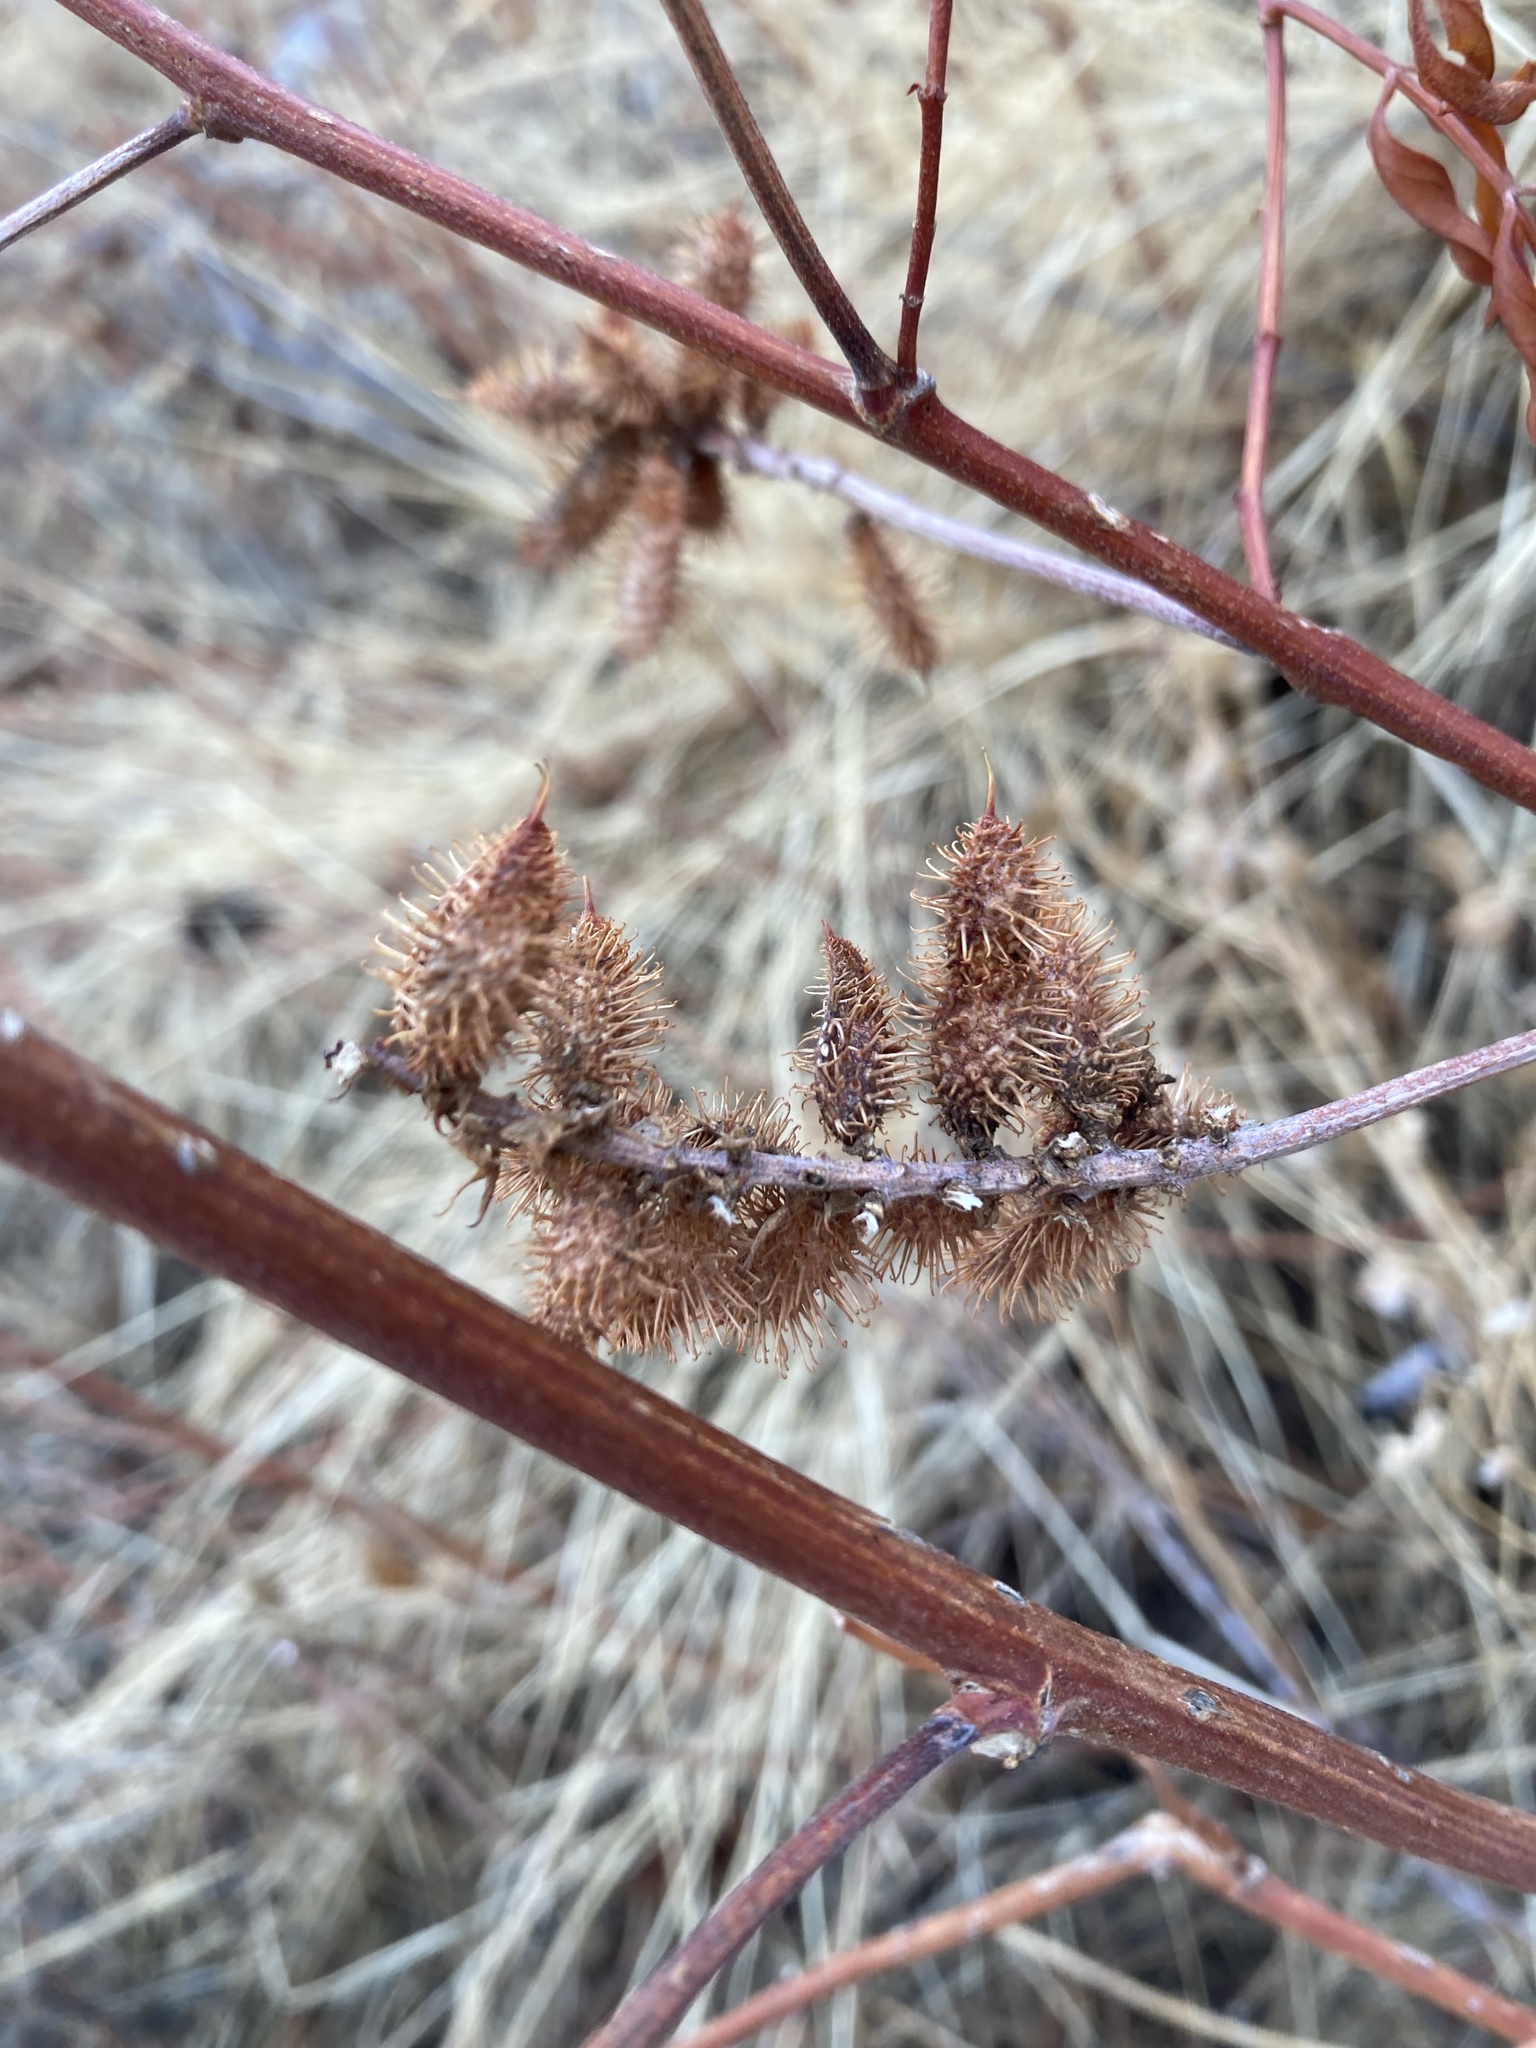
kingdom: Plantae
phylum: Tracheophyta
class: Magnoliopsida
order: Fabales
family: Fabaceae
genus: Glycyrrhiza
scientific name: Glycyrrhiza lepidota
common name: American liquorice
